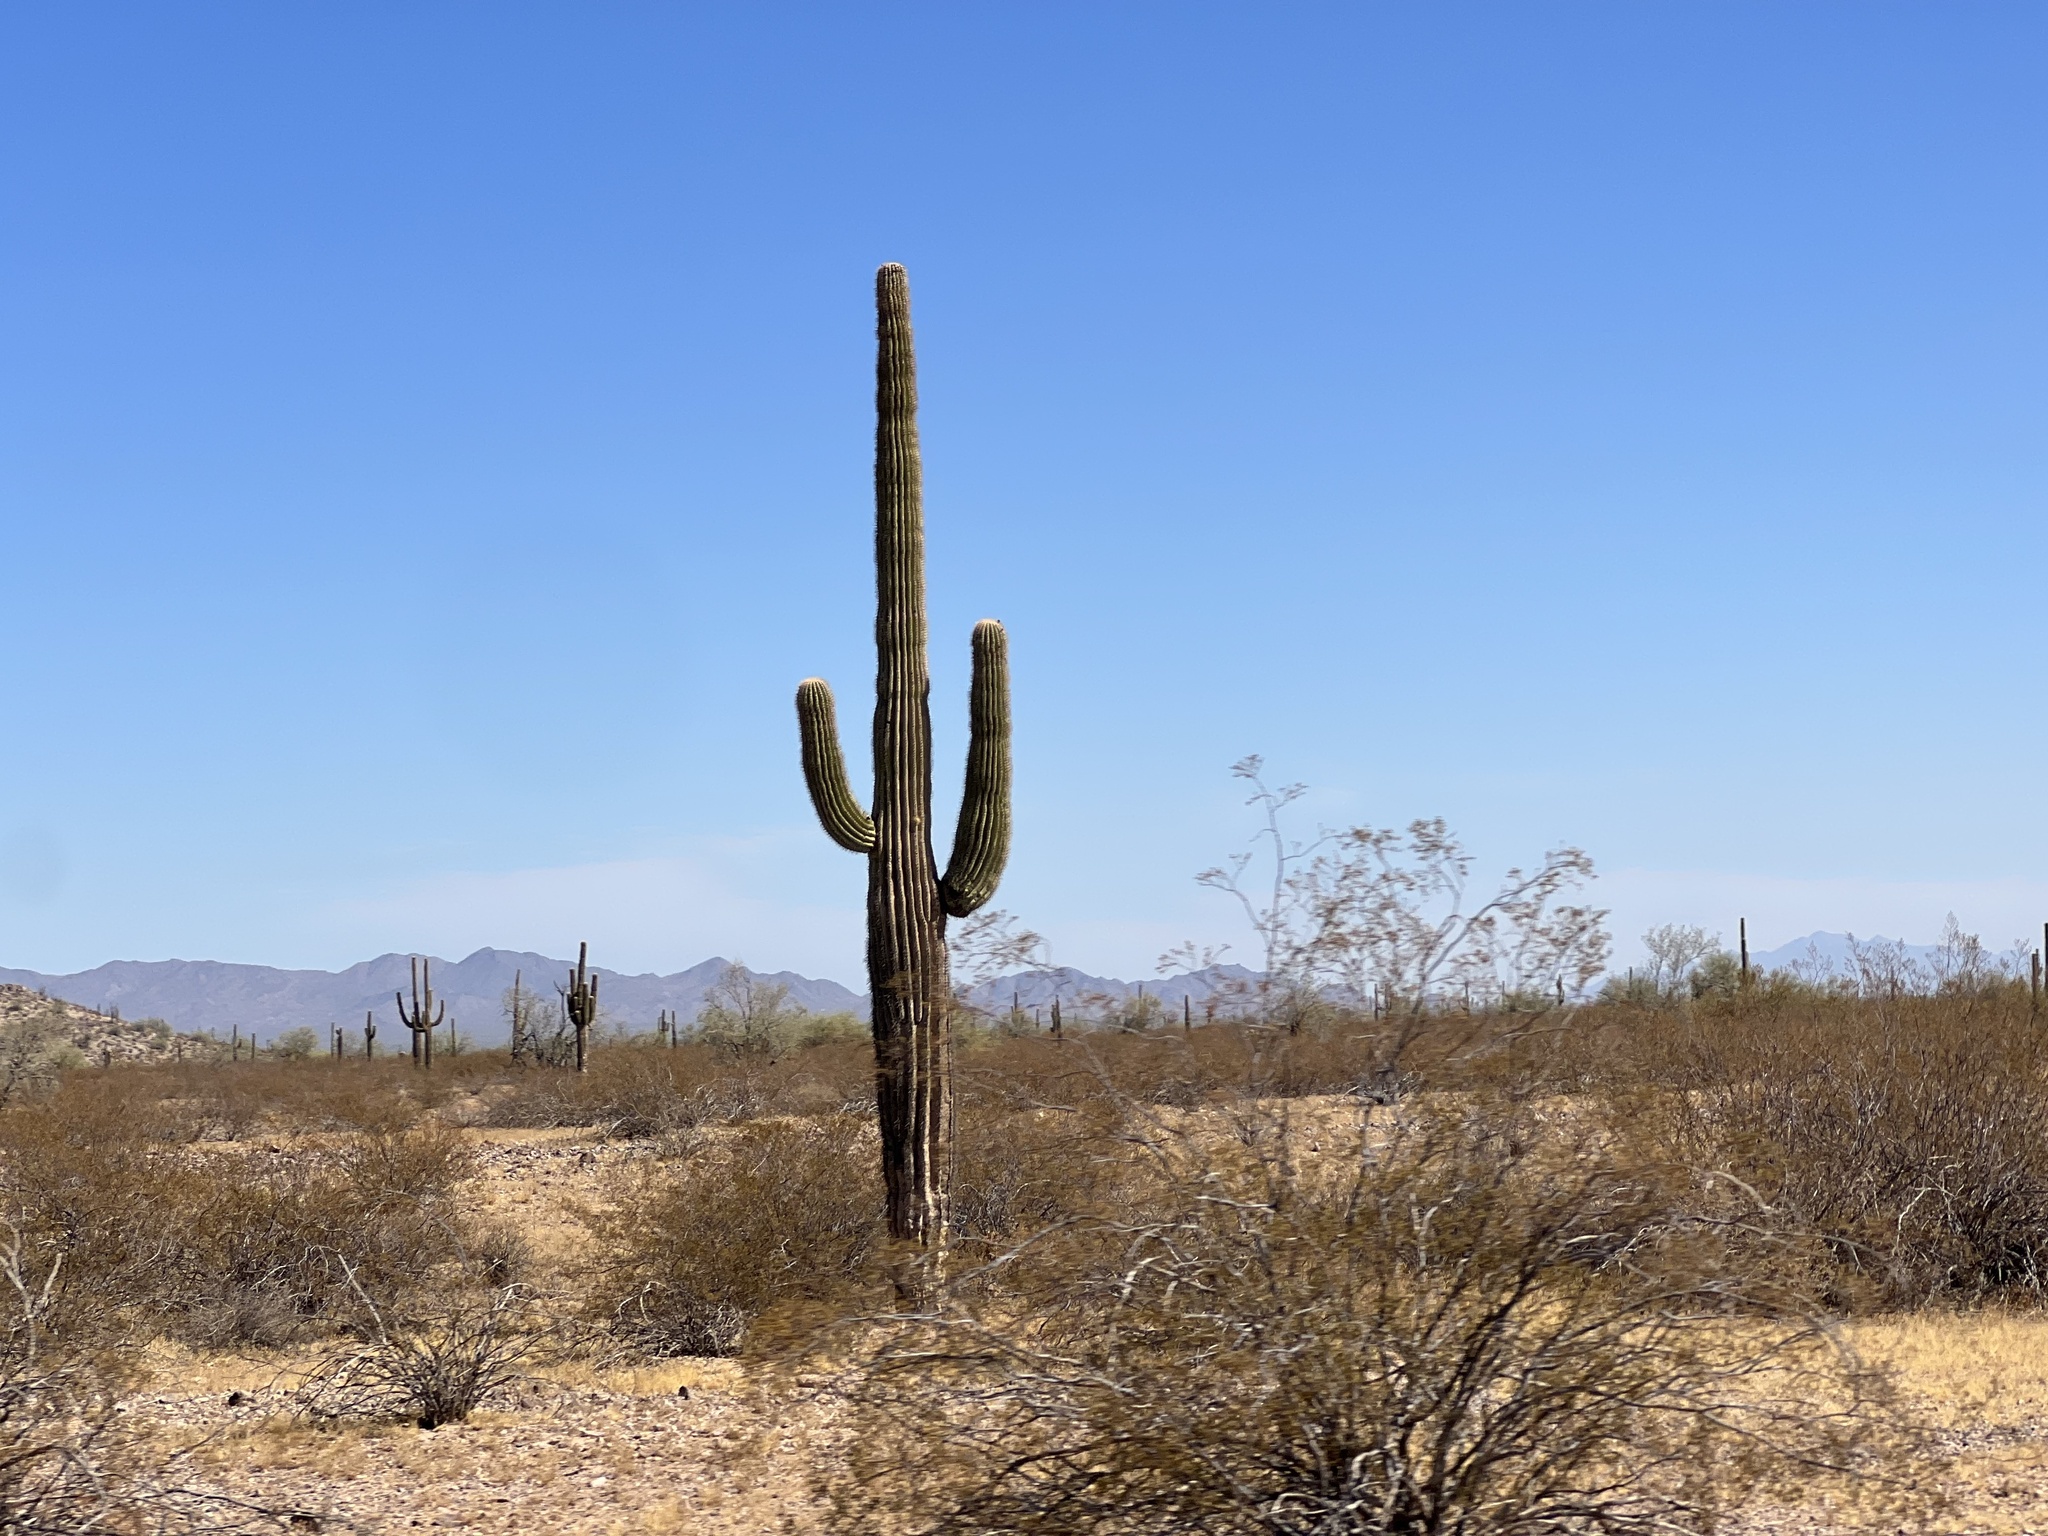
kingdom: Plantae
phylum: Tracheophyta
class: Magnoliopsida
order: Caryophyllales
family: Cactaceae
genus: Carnegiea
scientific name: Carnegiea gigantea
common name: Saguaro
